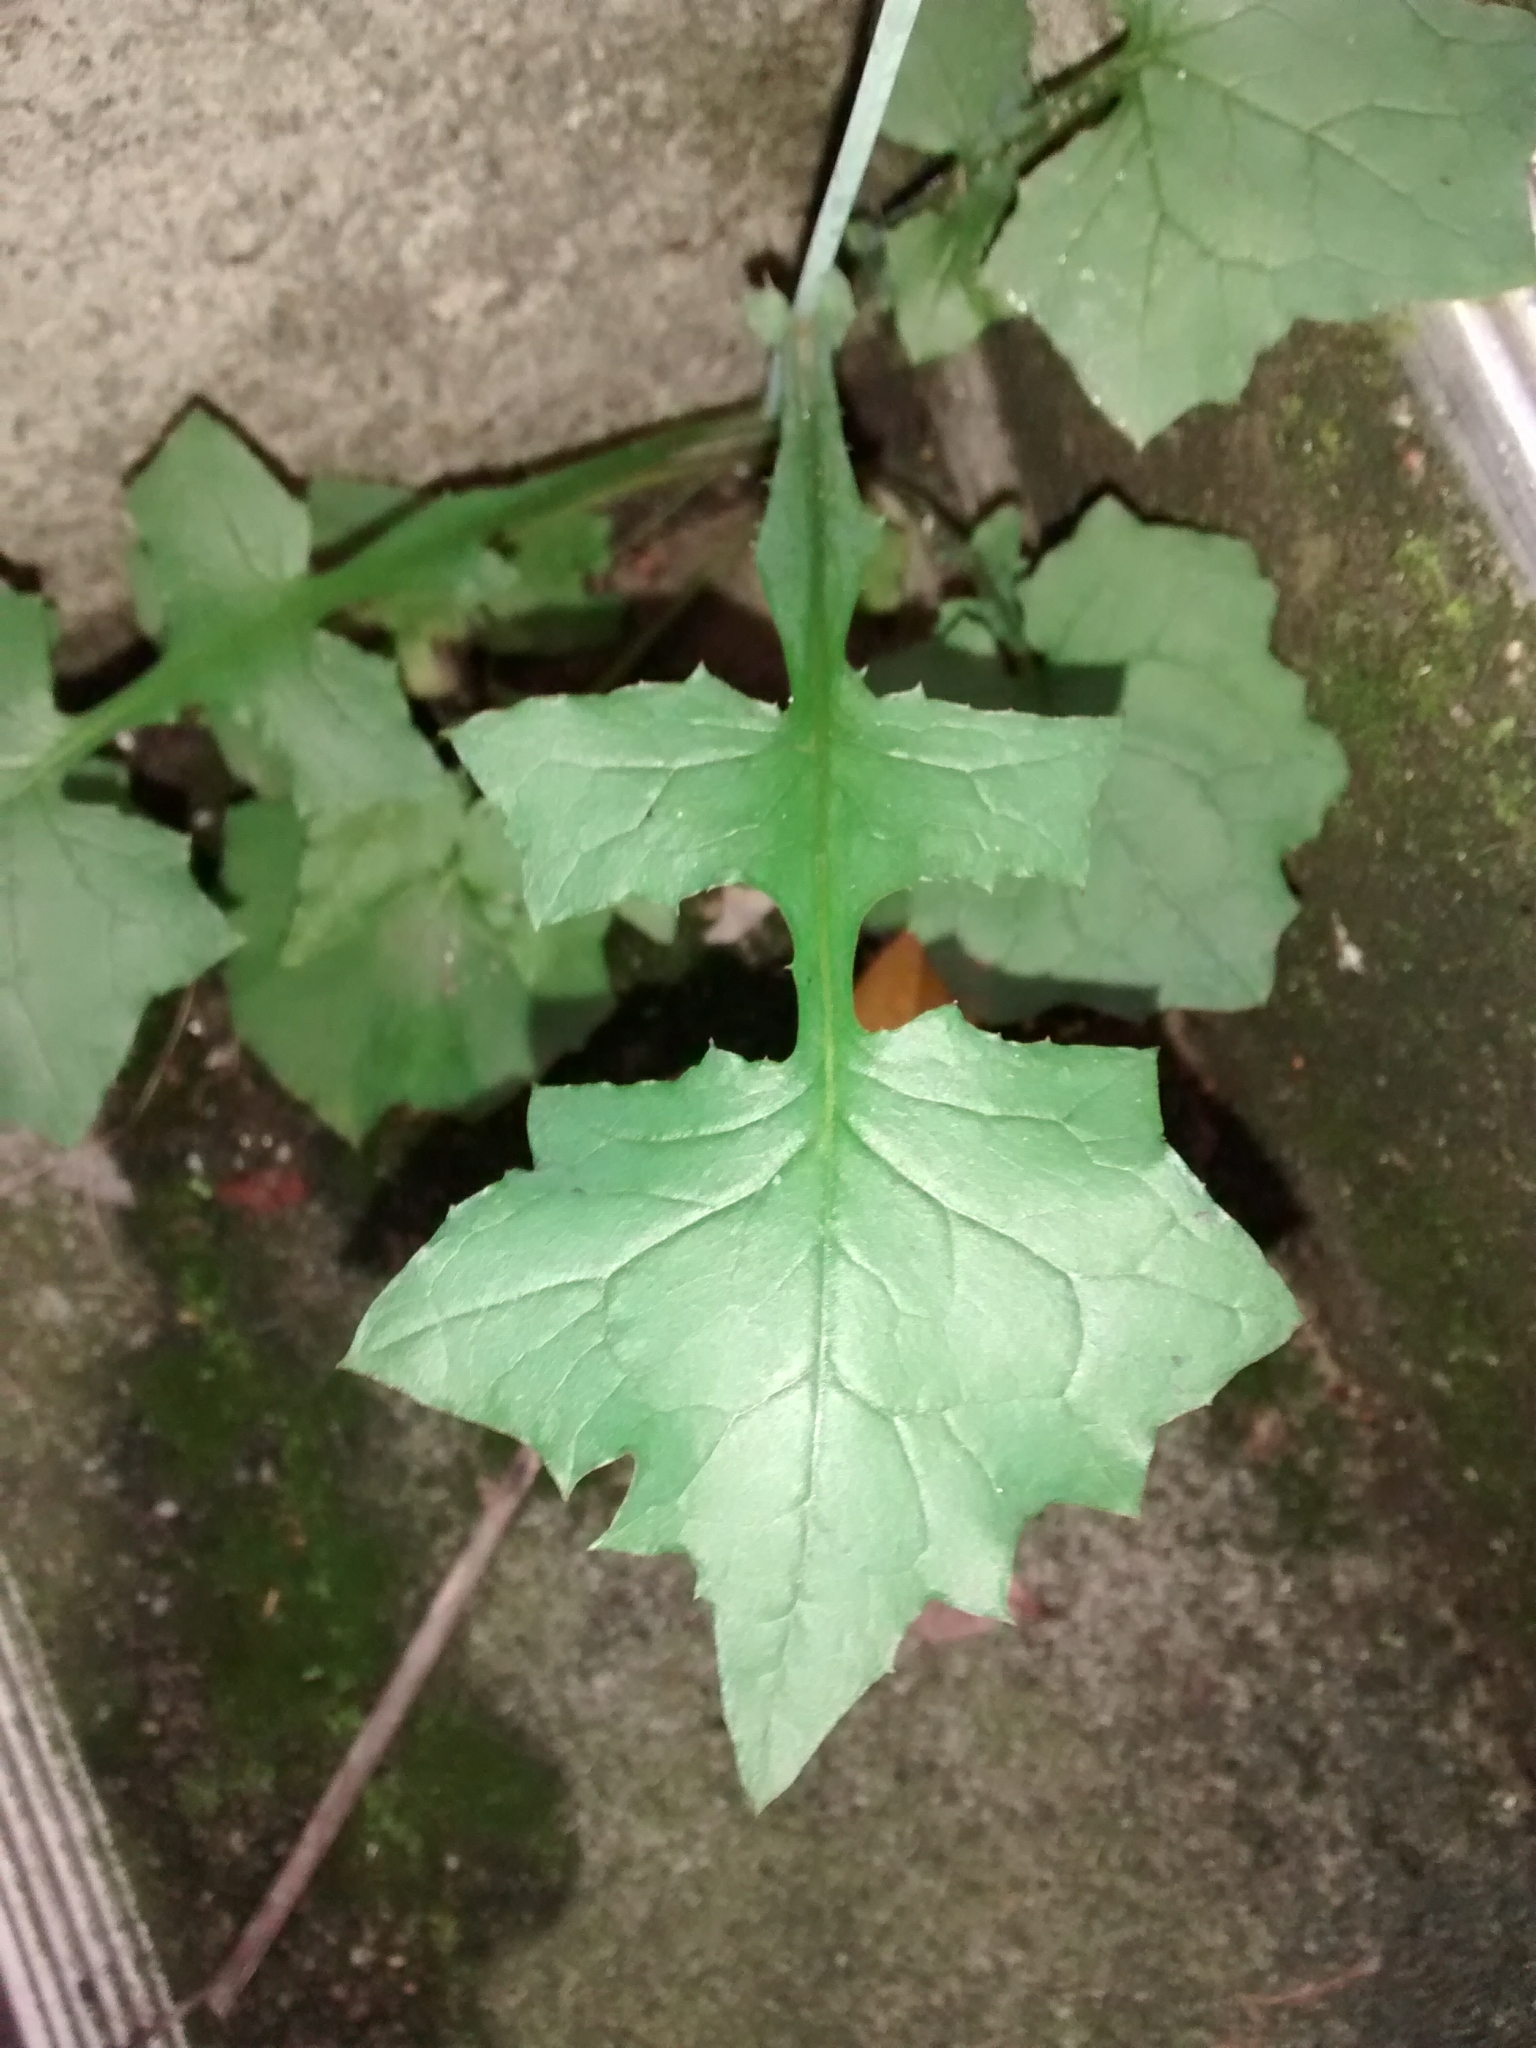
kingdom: Plantae
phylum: Tracheophyta
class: Magnoliopsida
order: Asterales
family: Asteraceae
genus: Mycelis
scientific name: Mycelis muralis
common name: Wall lettuce
